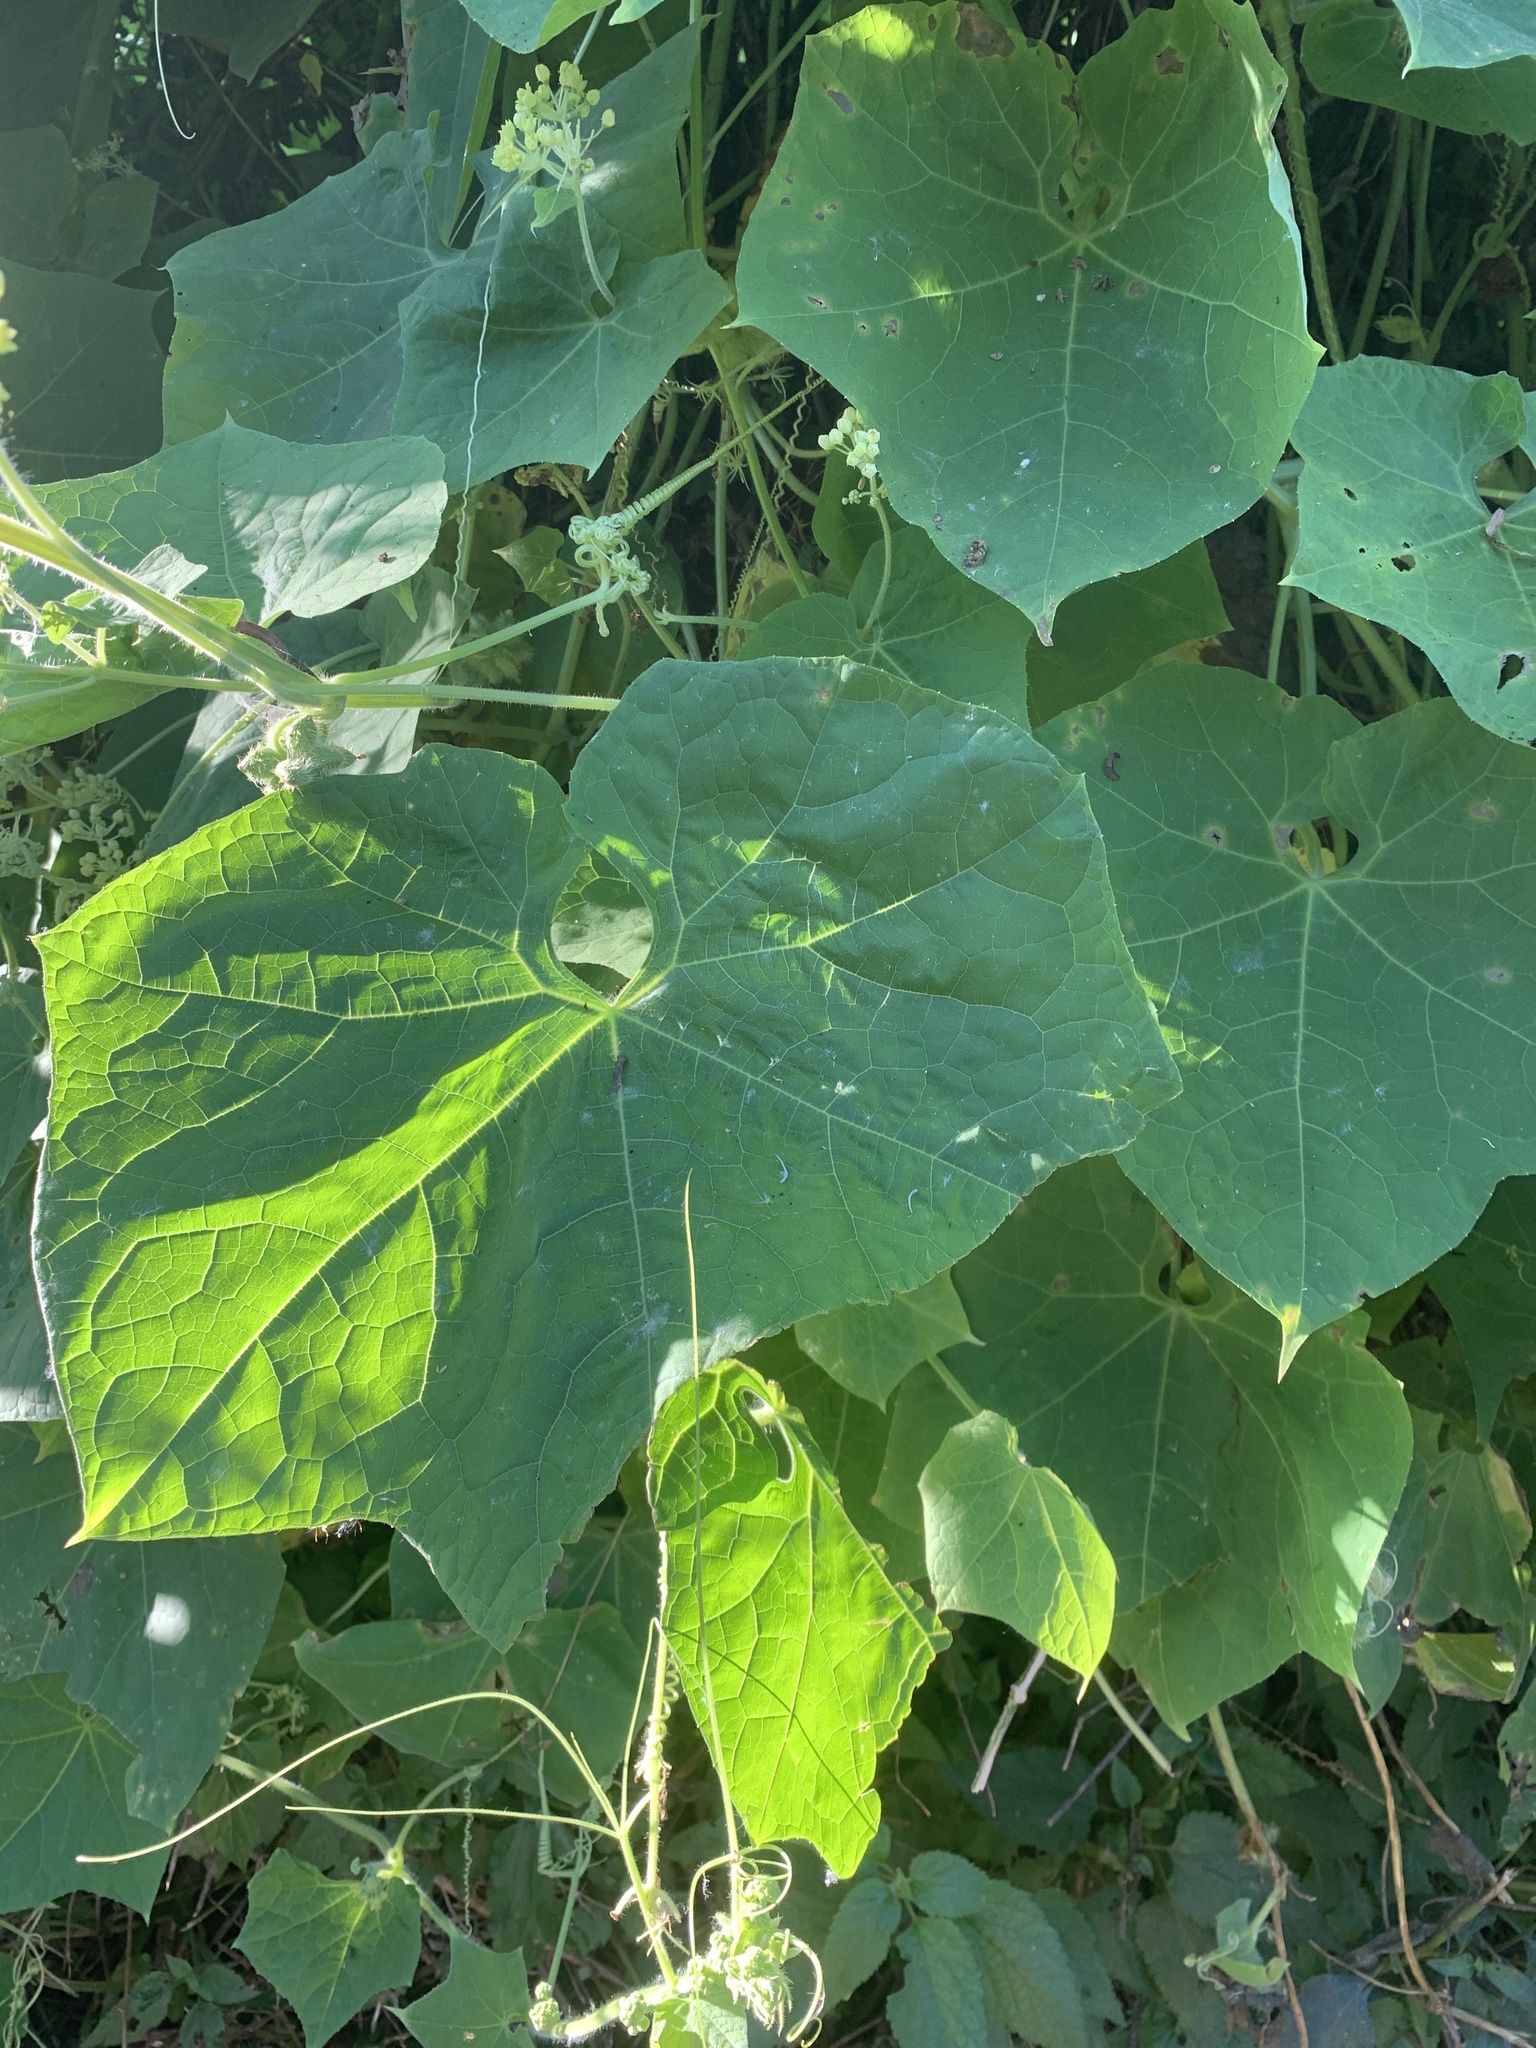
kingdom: Plantae
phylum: Tracheophyta
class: Magnoliopsida
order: Cucurbitales
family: Cucurbitaceae
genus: Sicyos
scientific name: Sicyos polyacanthos
